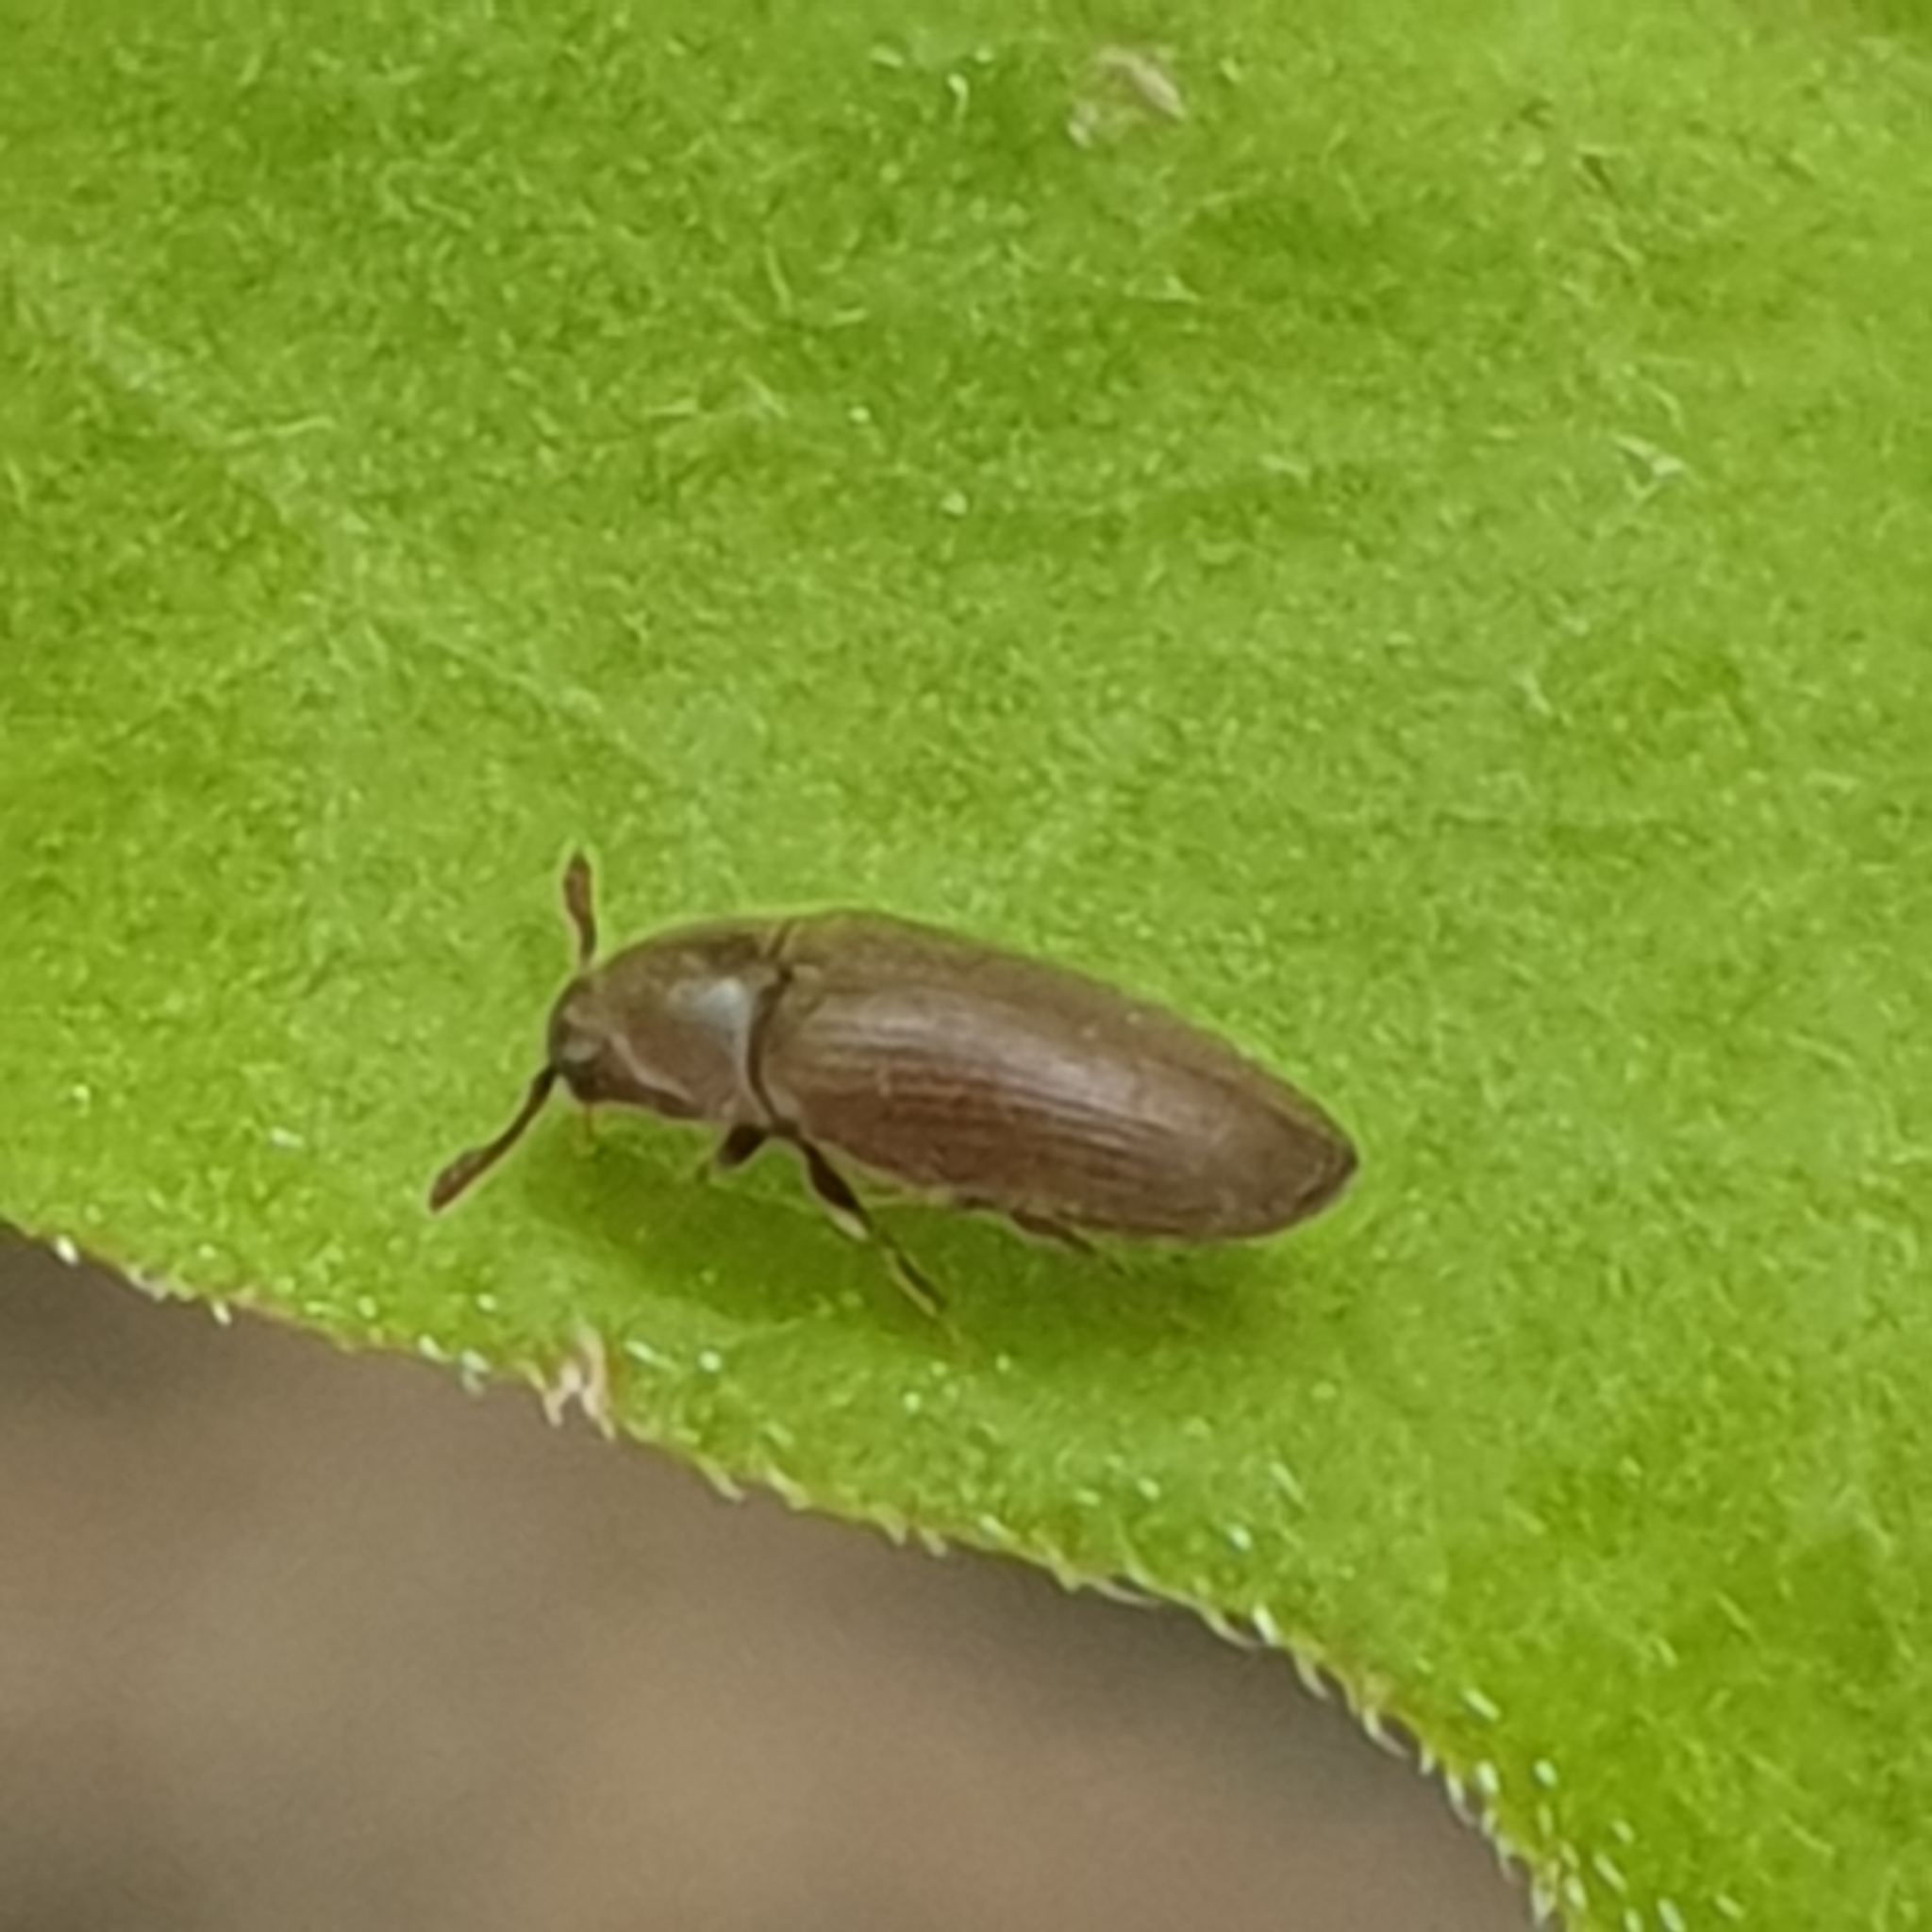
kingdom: Animalia
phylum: Arthropoda
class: Insecta
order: Coleoptera
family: Throscidae
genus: Trixagus
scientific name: Trixagus dermestoides
